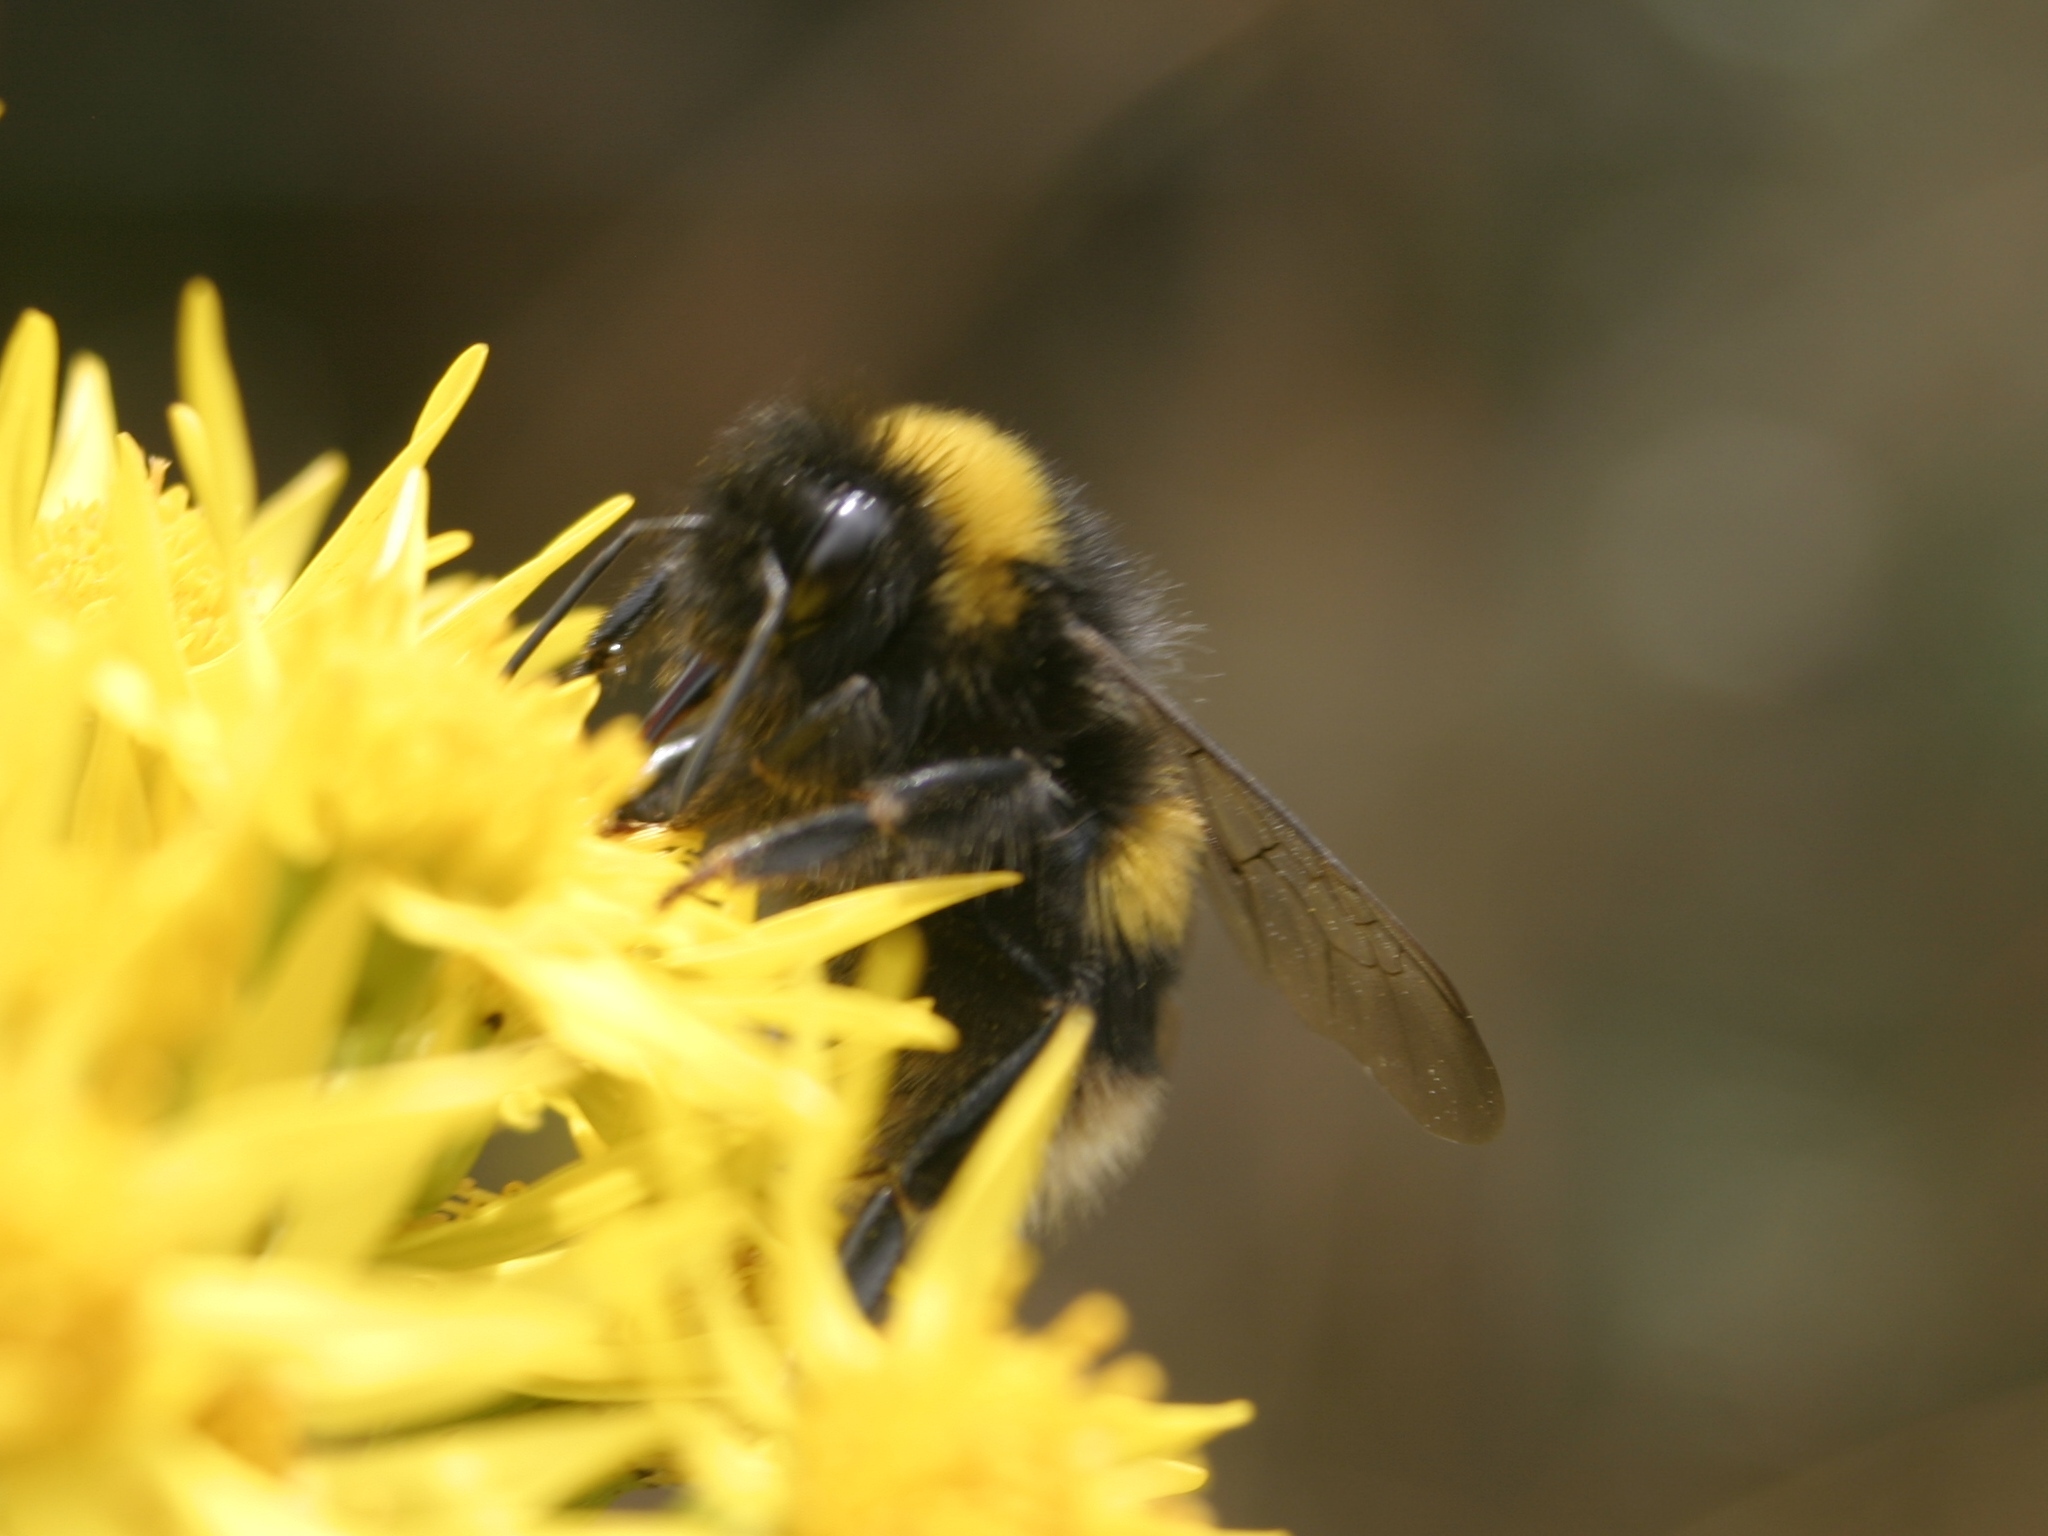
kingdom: Animalia
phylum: Arthropoda
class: Insecta
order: Hymenoptera
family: Apidae
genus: Bombus
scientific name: Bombus terrestris
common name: Buff-tailed bumblebee
